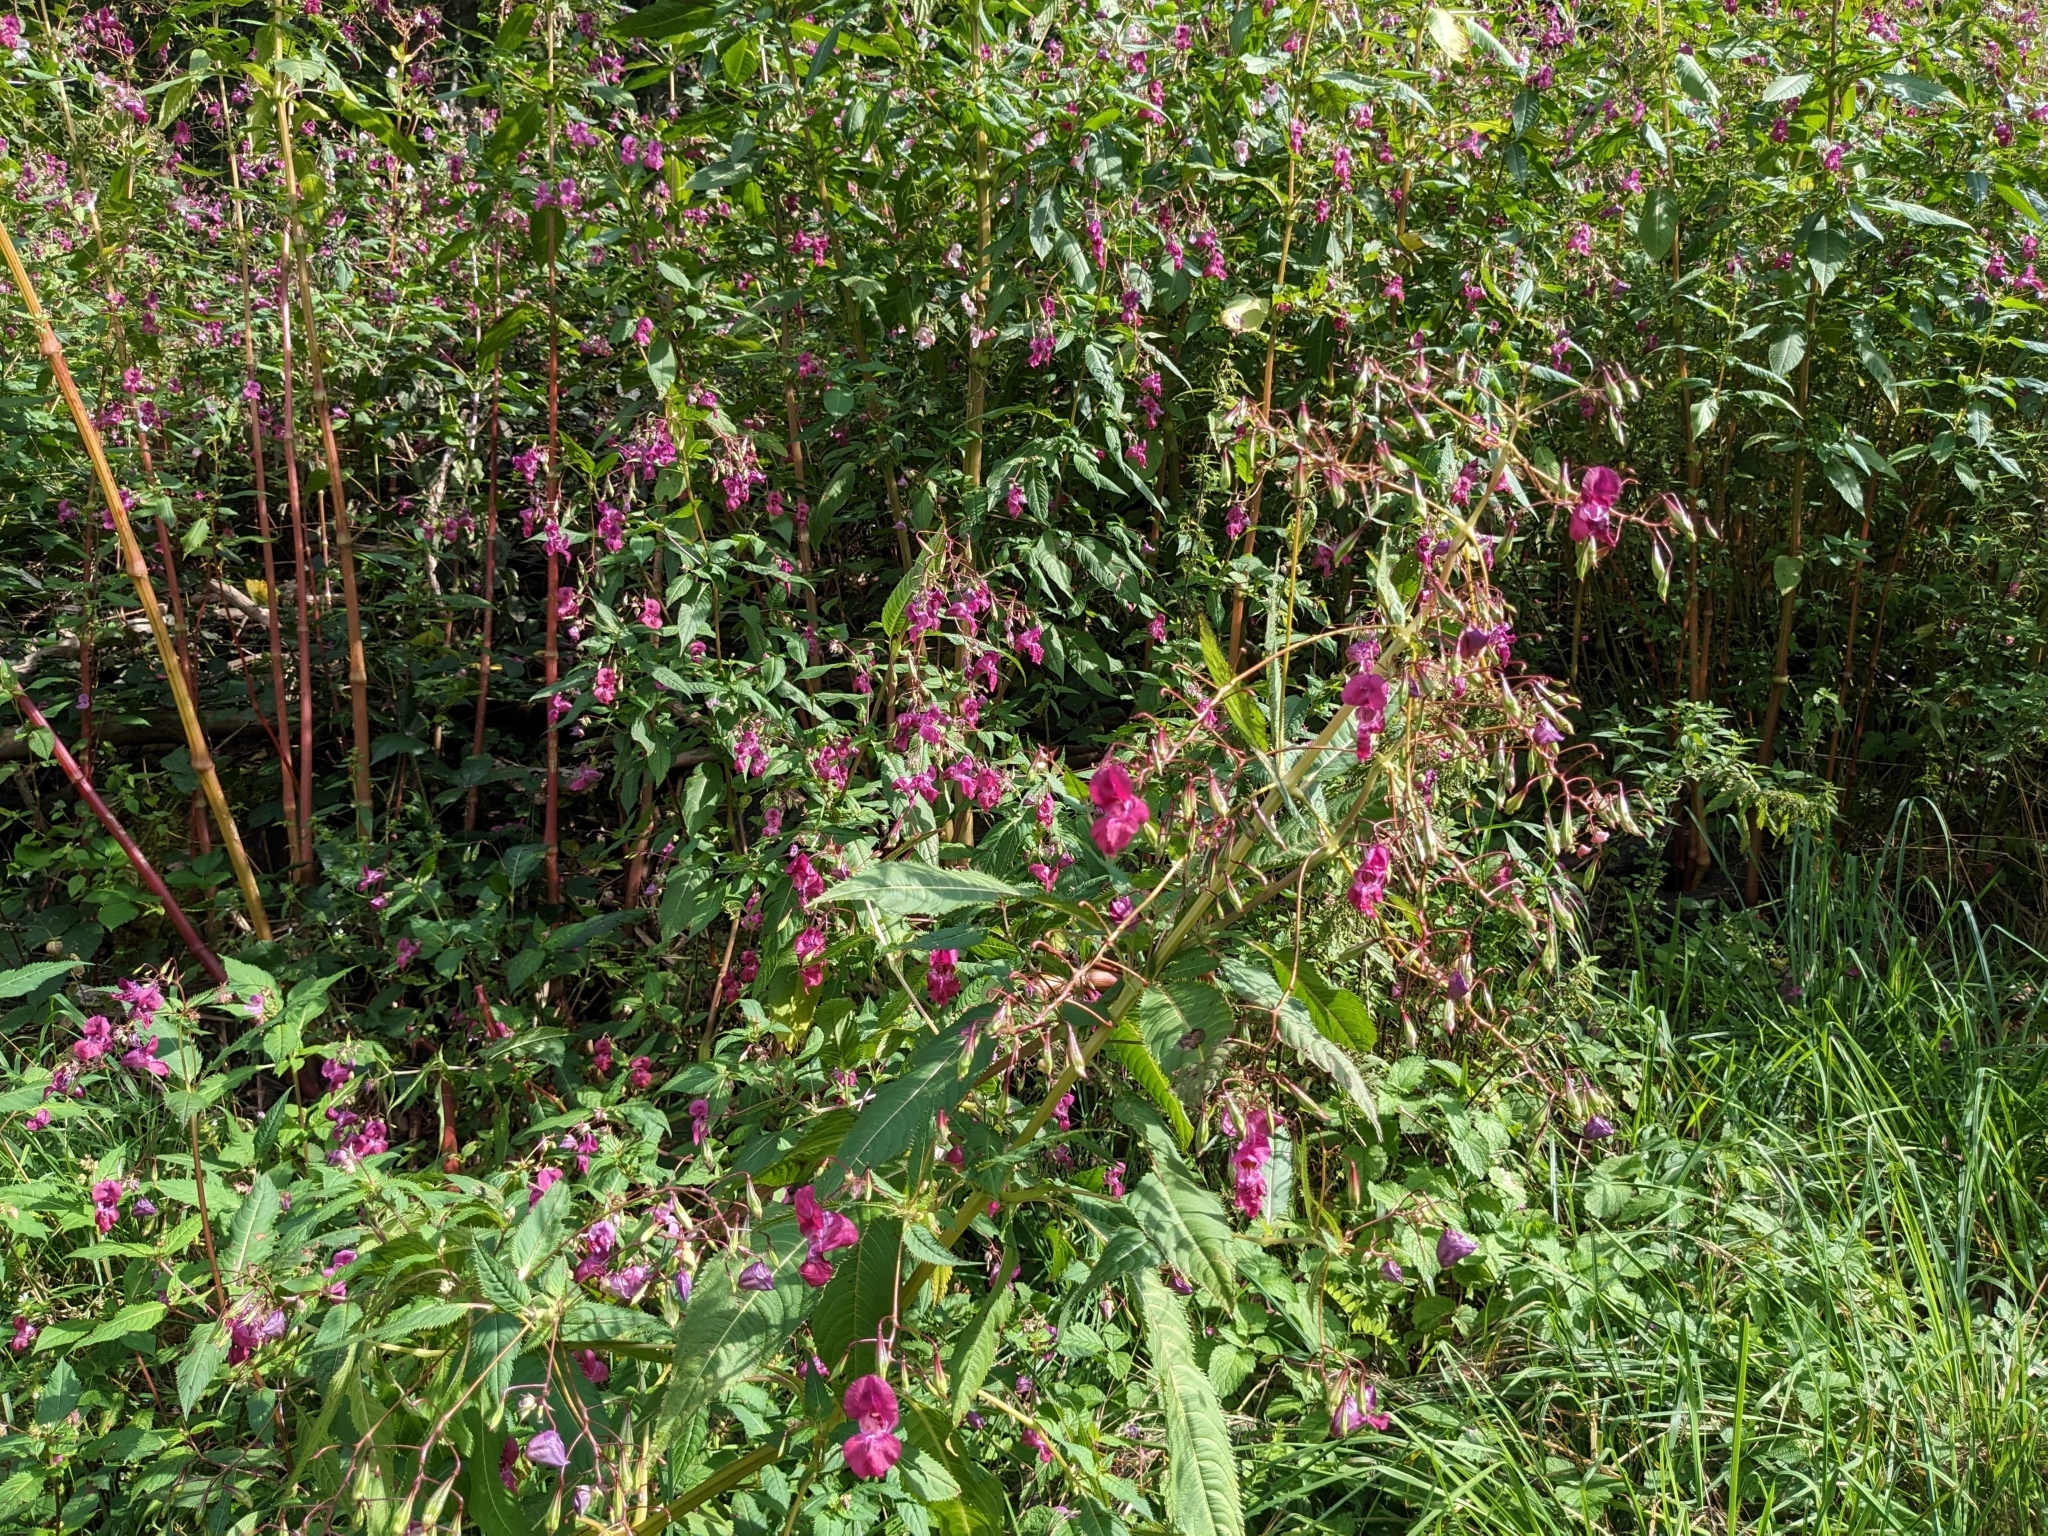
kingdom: Plantae
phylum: Tracheophyta
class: Magnoliopsida
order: Ericales
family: Balsaminaceae
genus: Impatiens
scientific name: Impatiens glandulifera
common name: Himalayan balsam
